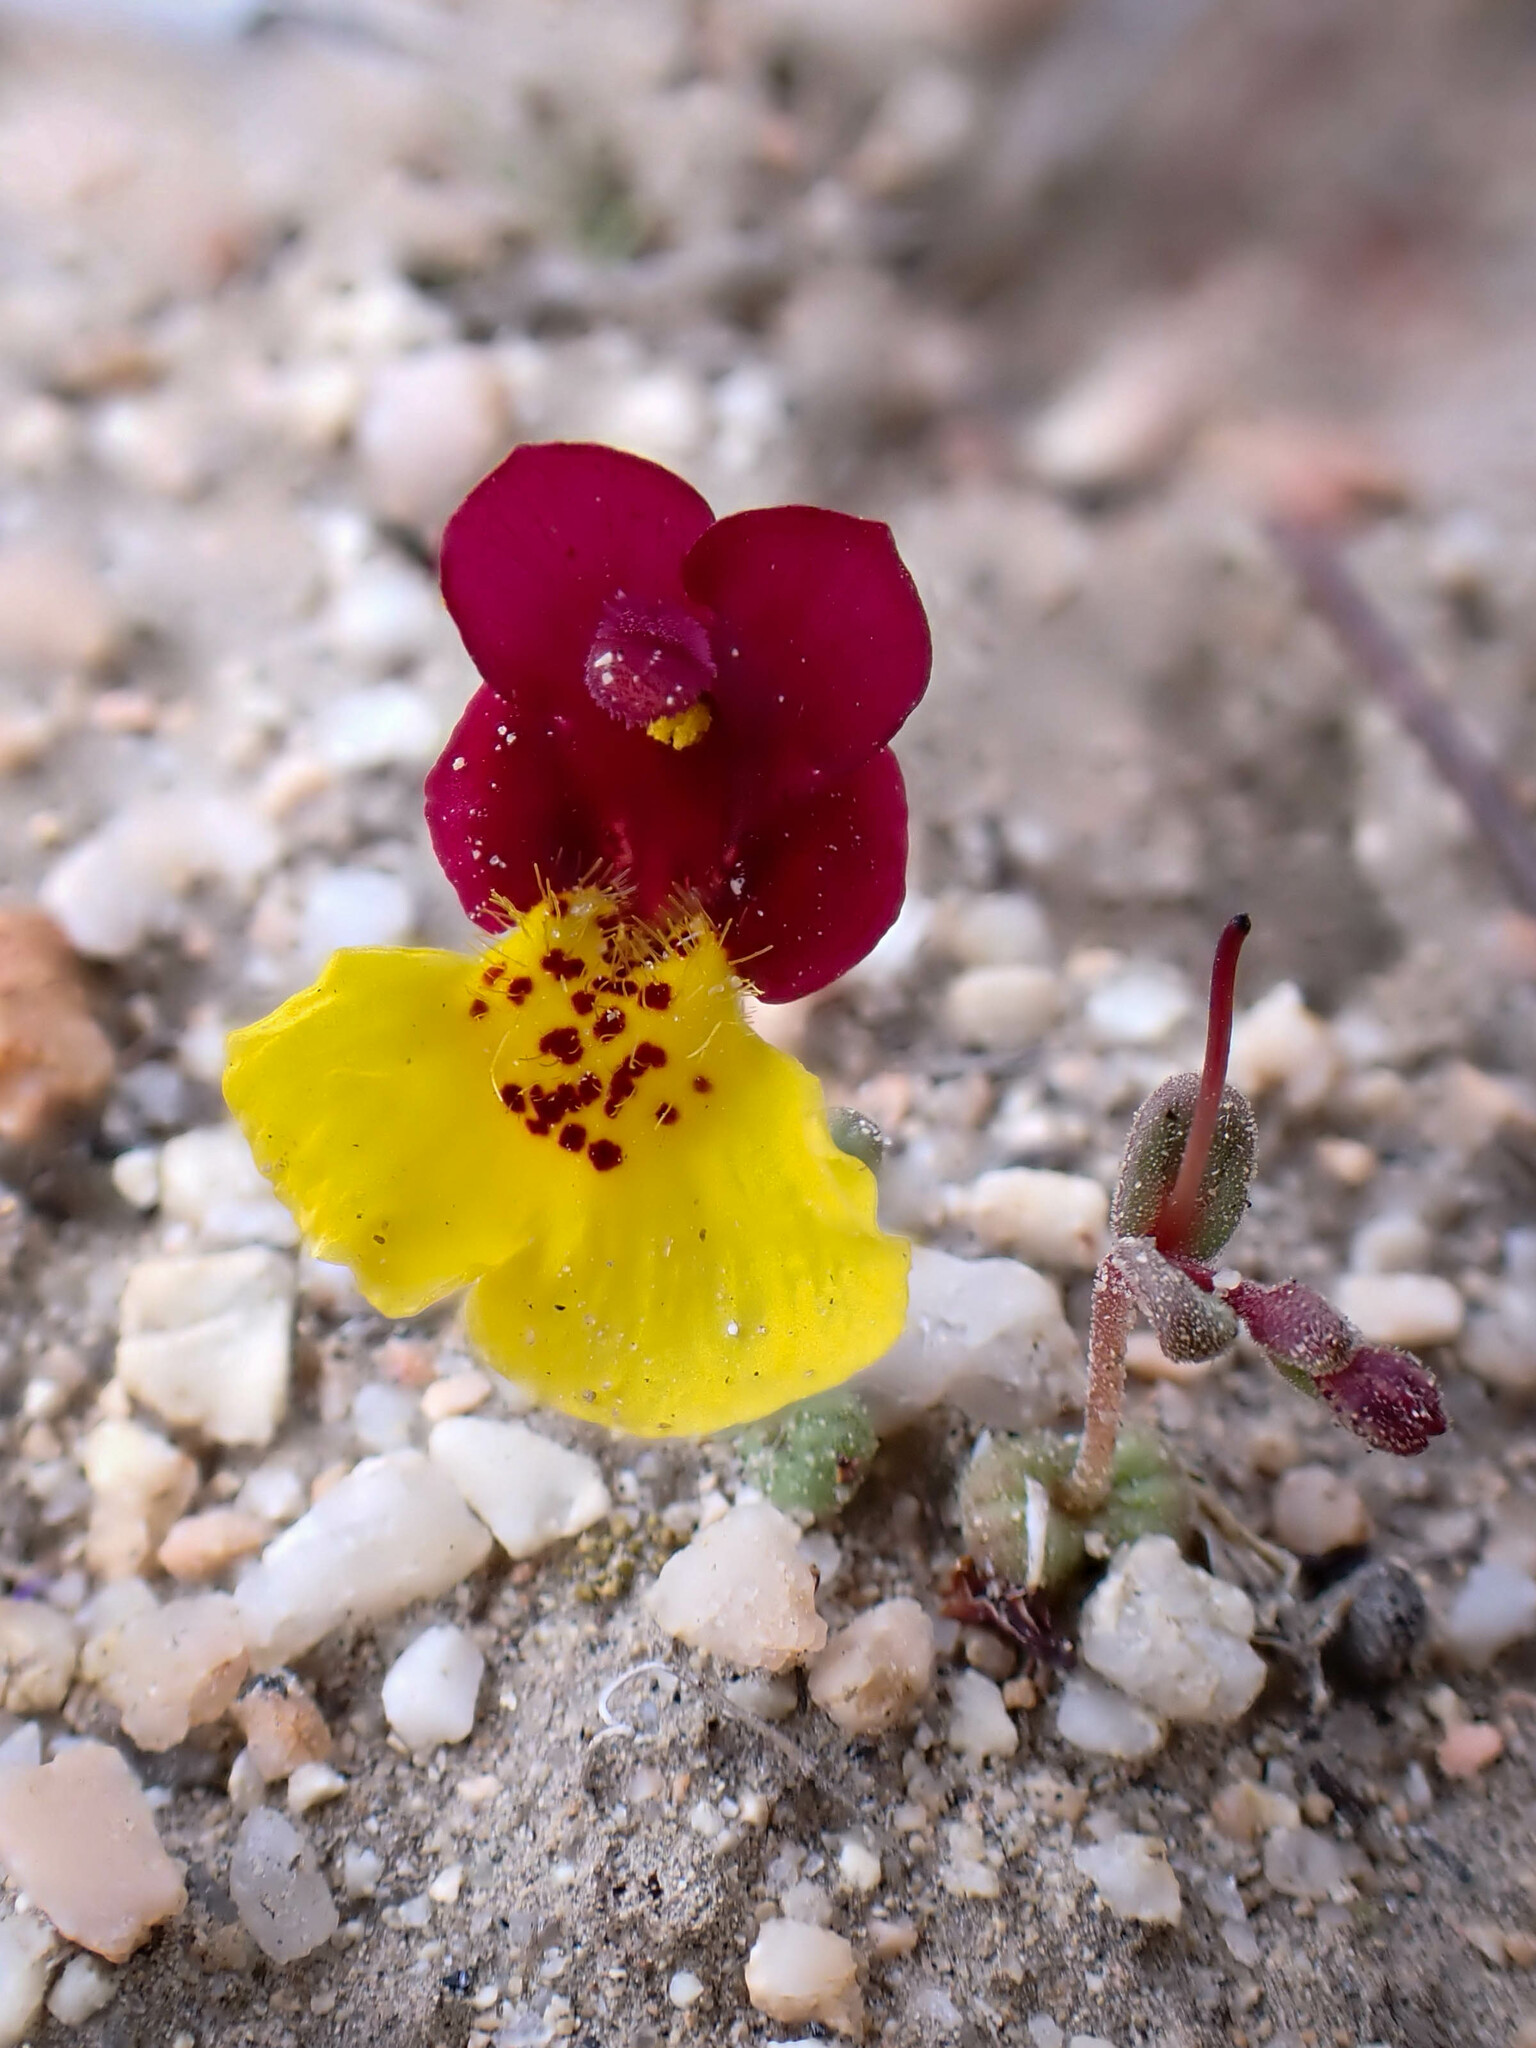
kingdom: Plantae
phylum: Tracheophyta
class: Magnoliopsida
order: Lamiales
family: Phrymaceae
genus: Erythranthe
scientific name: Erythranthe shevockii
